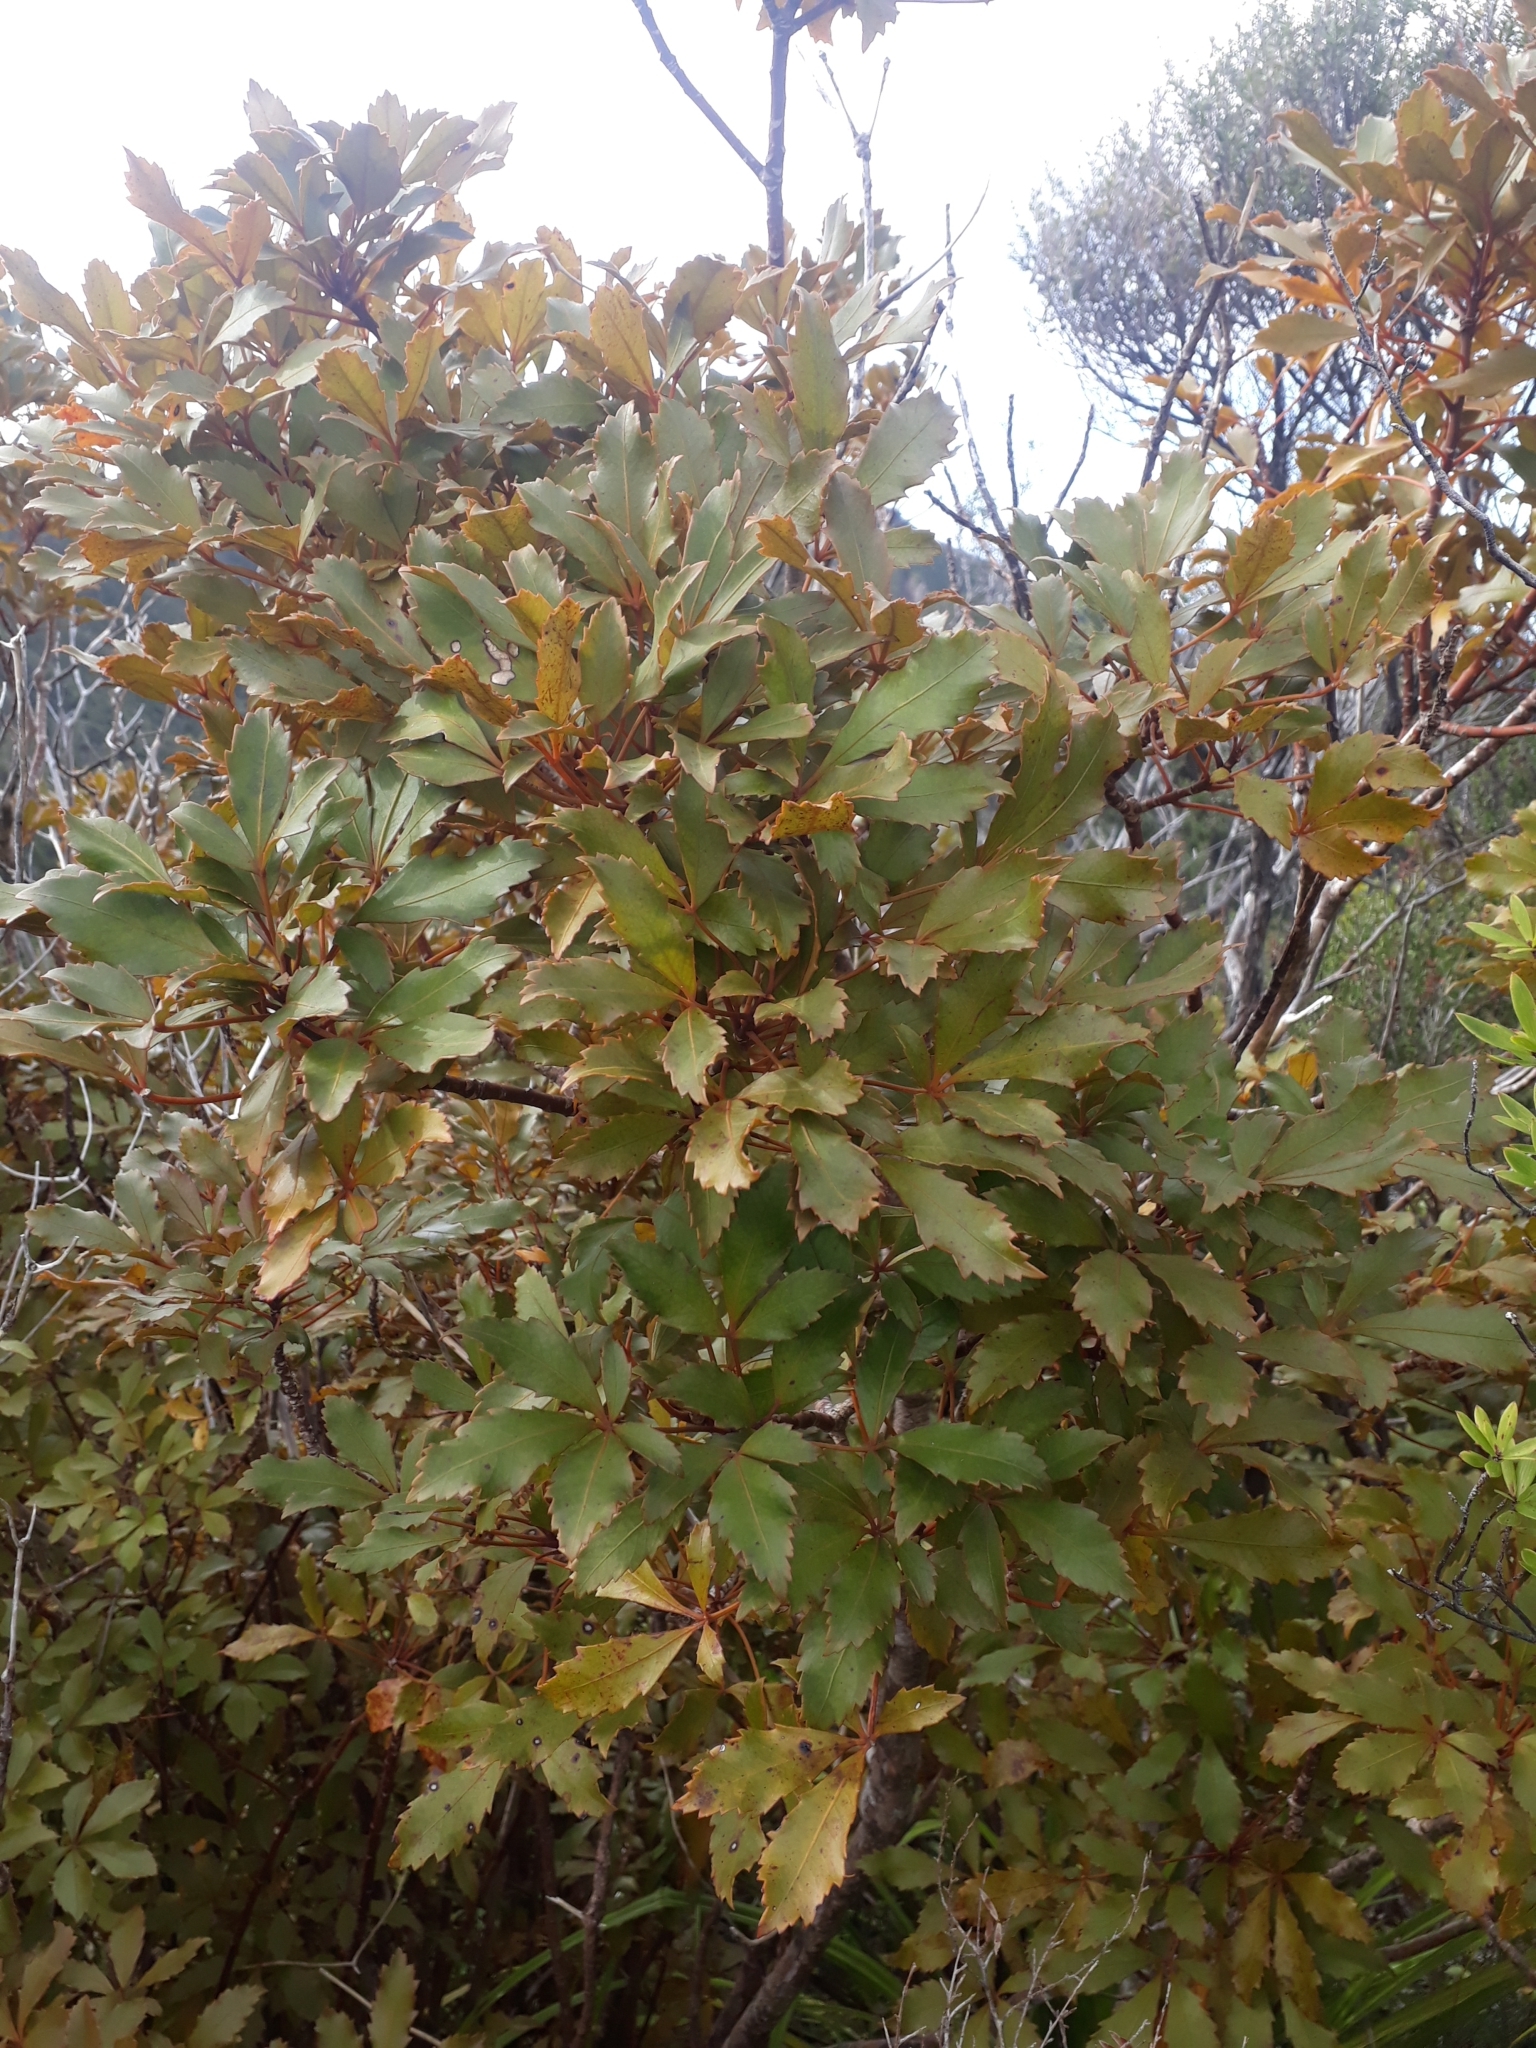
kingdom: Plantae
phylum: Tracheophyta
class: Magnoliopsida
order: Apiales
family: Araliaceae
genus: Pseudopanax
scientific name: Pseudopanax discolor
